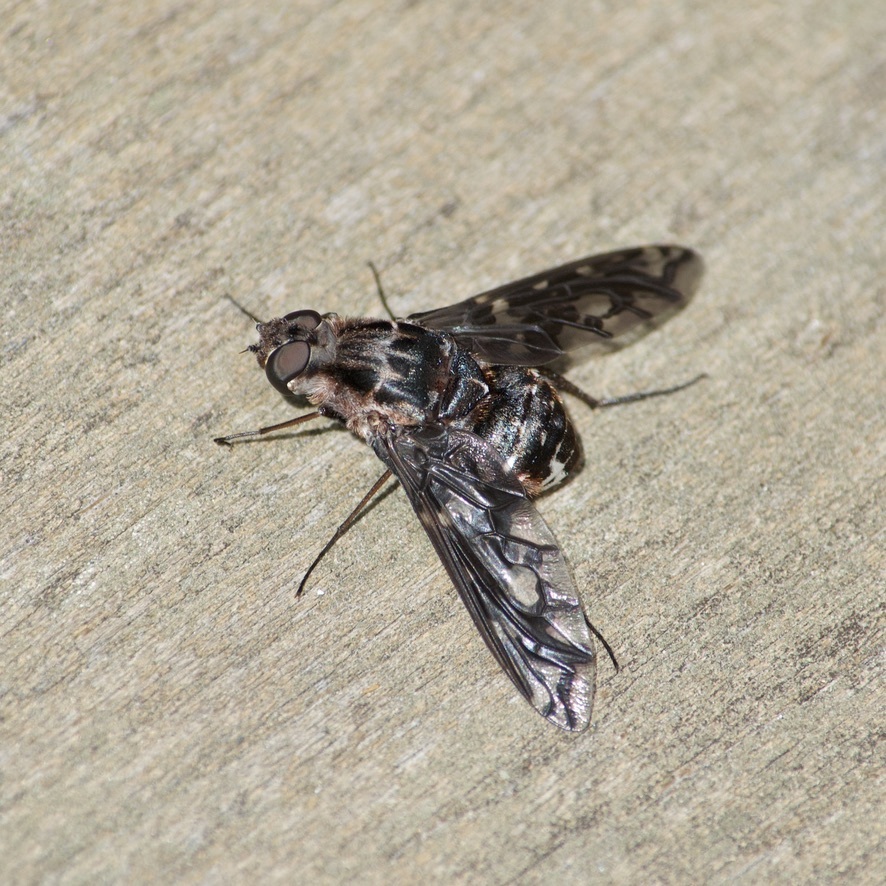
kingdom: Animalia
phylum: Arthropoda
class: Insecta
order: Diptera
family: Bombyliidae
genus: Xenox
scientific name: Xenox tigrinus
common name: Tiger bee fly
